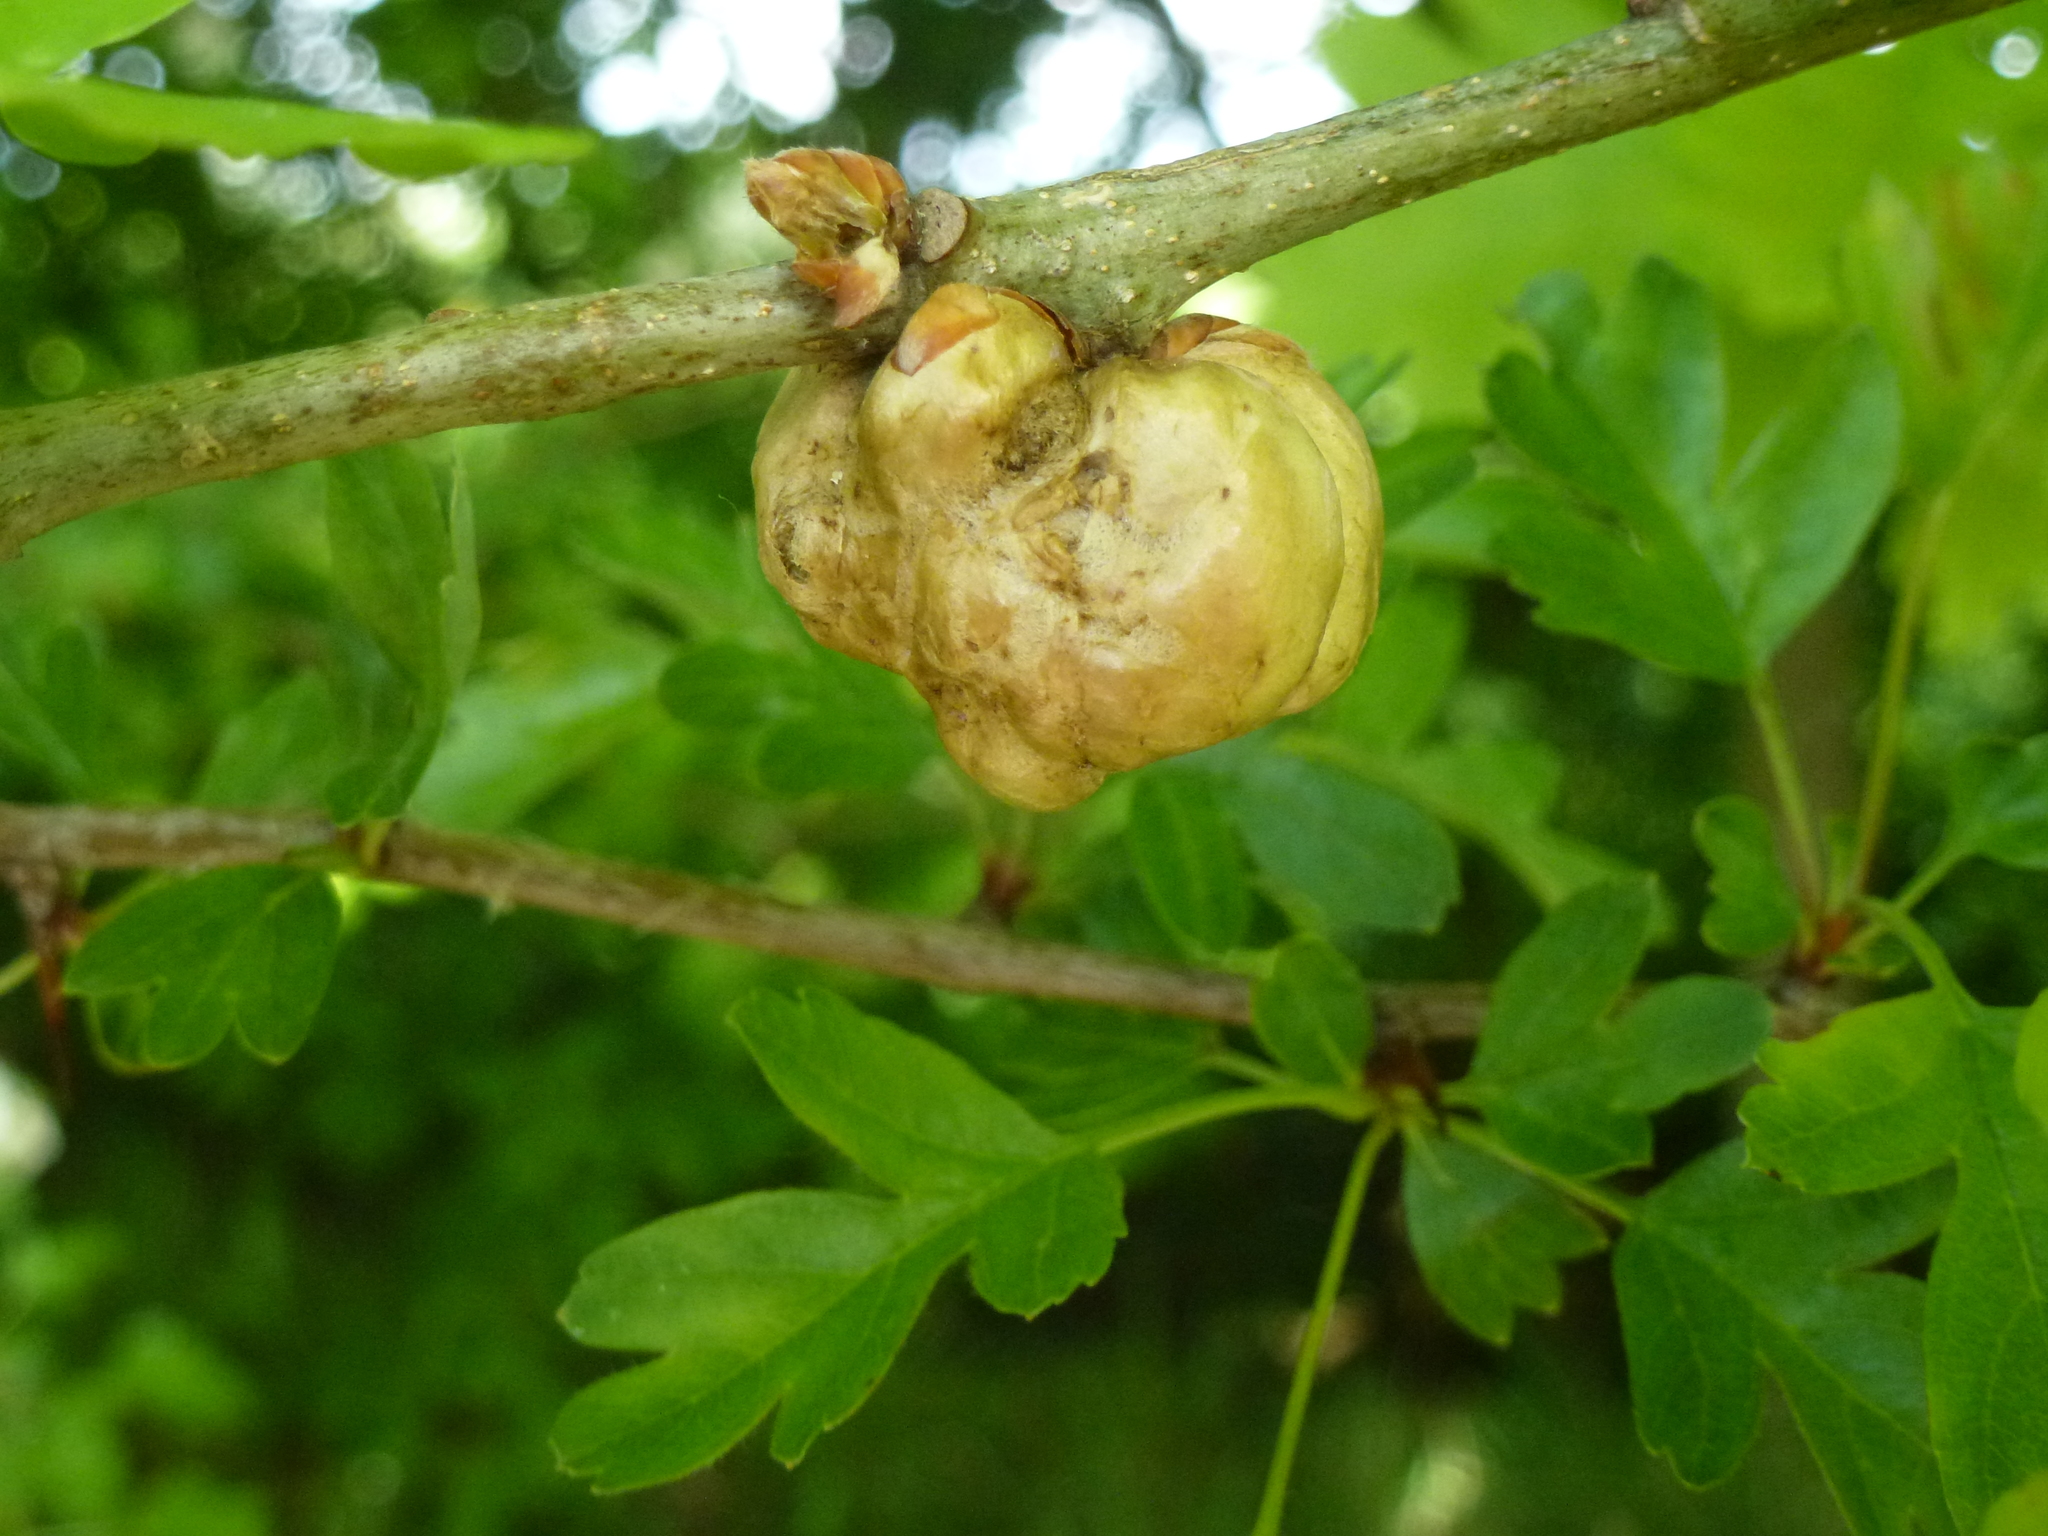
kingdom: Animalia
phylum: Arthropoda
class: Insecta
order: Hymenoptera
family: Cynipidae
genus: Biorhiza
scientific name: Biorhiza pallida
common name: Oak apple
